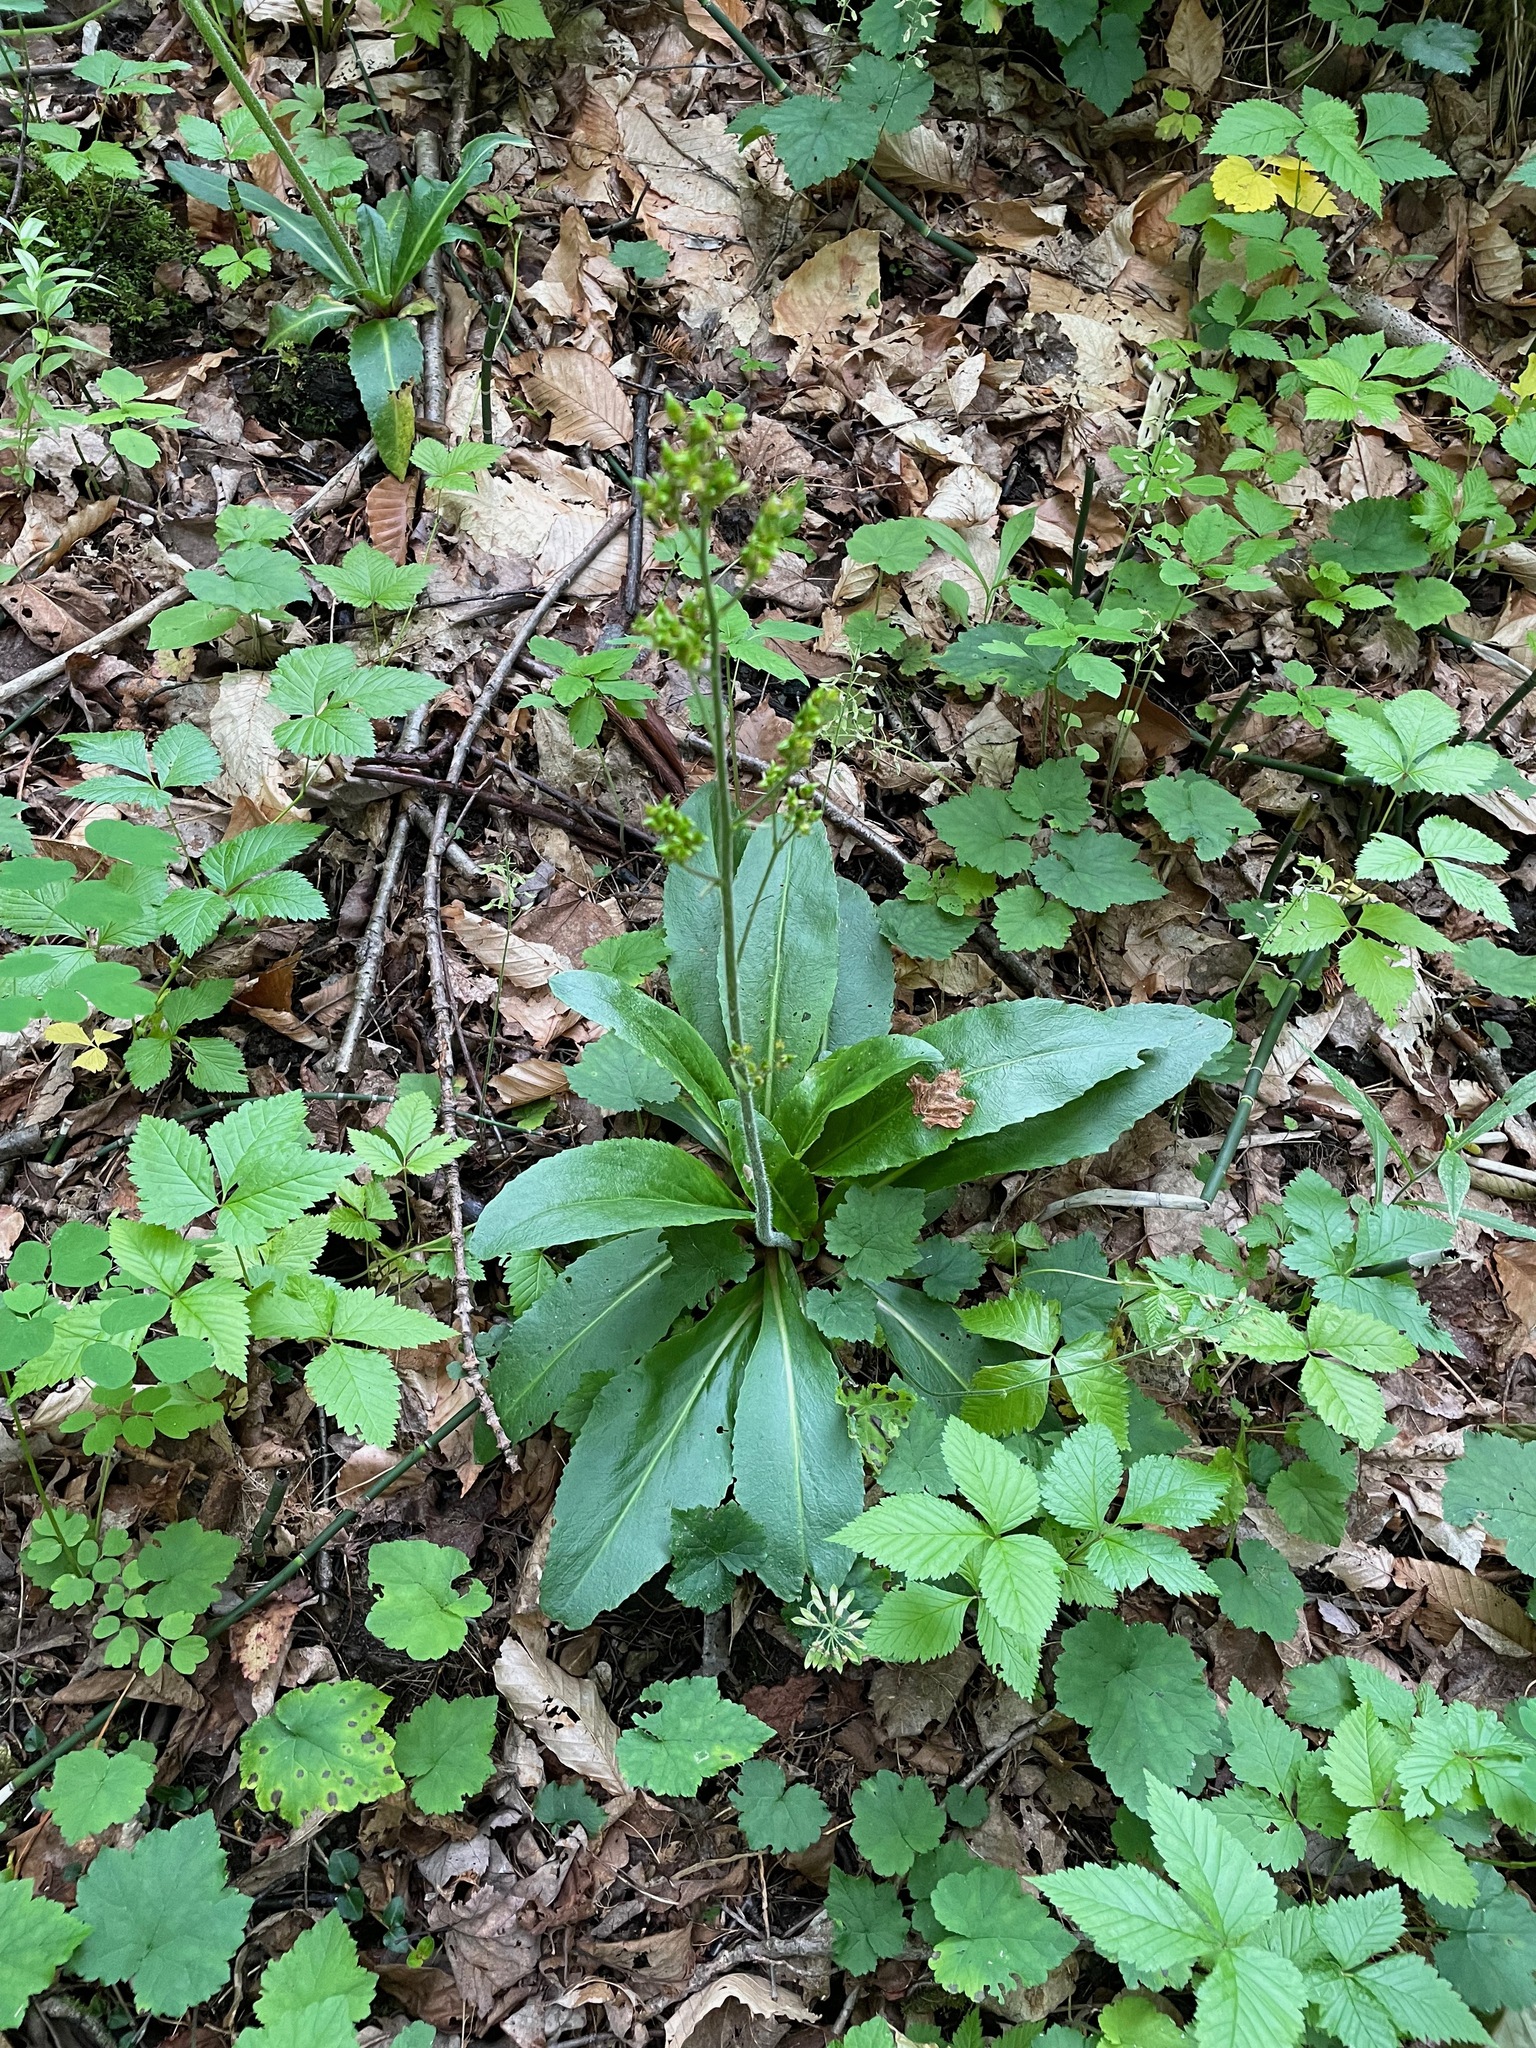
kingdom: Plantae
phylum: Tracheophyta
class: Magnoliopsida
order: Saxifragales
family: Saxifragaceae
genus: Micranthes
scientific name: Micranthes pensylvanica
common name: Marsh saxifrage
